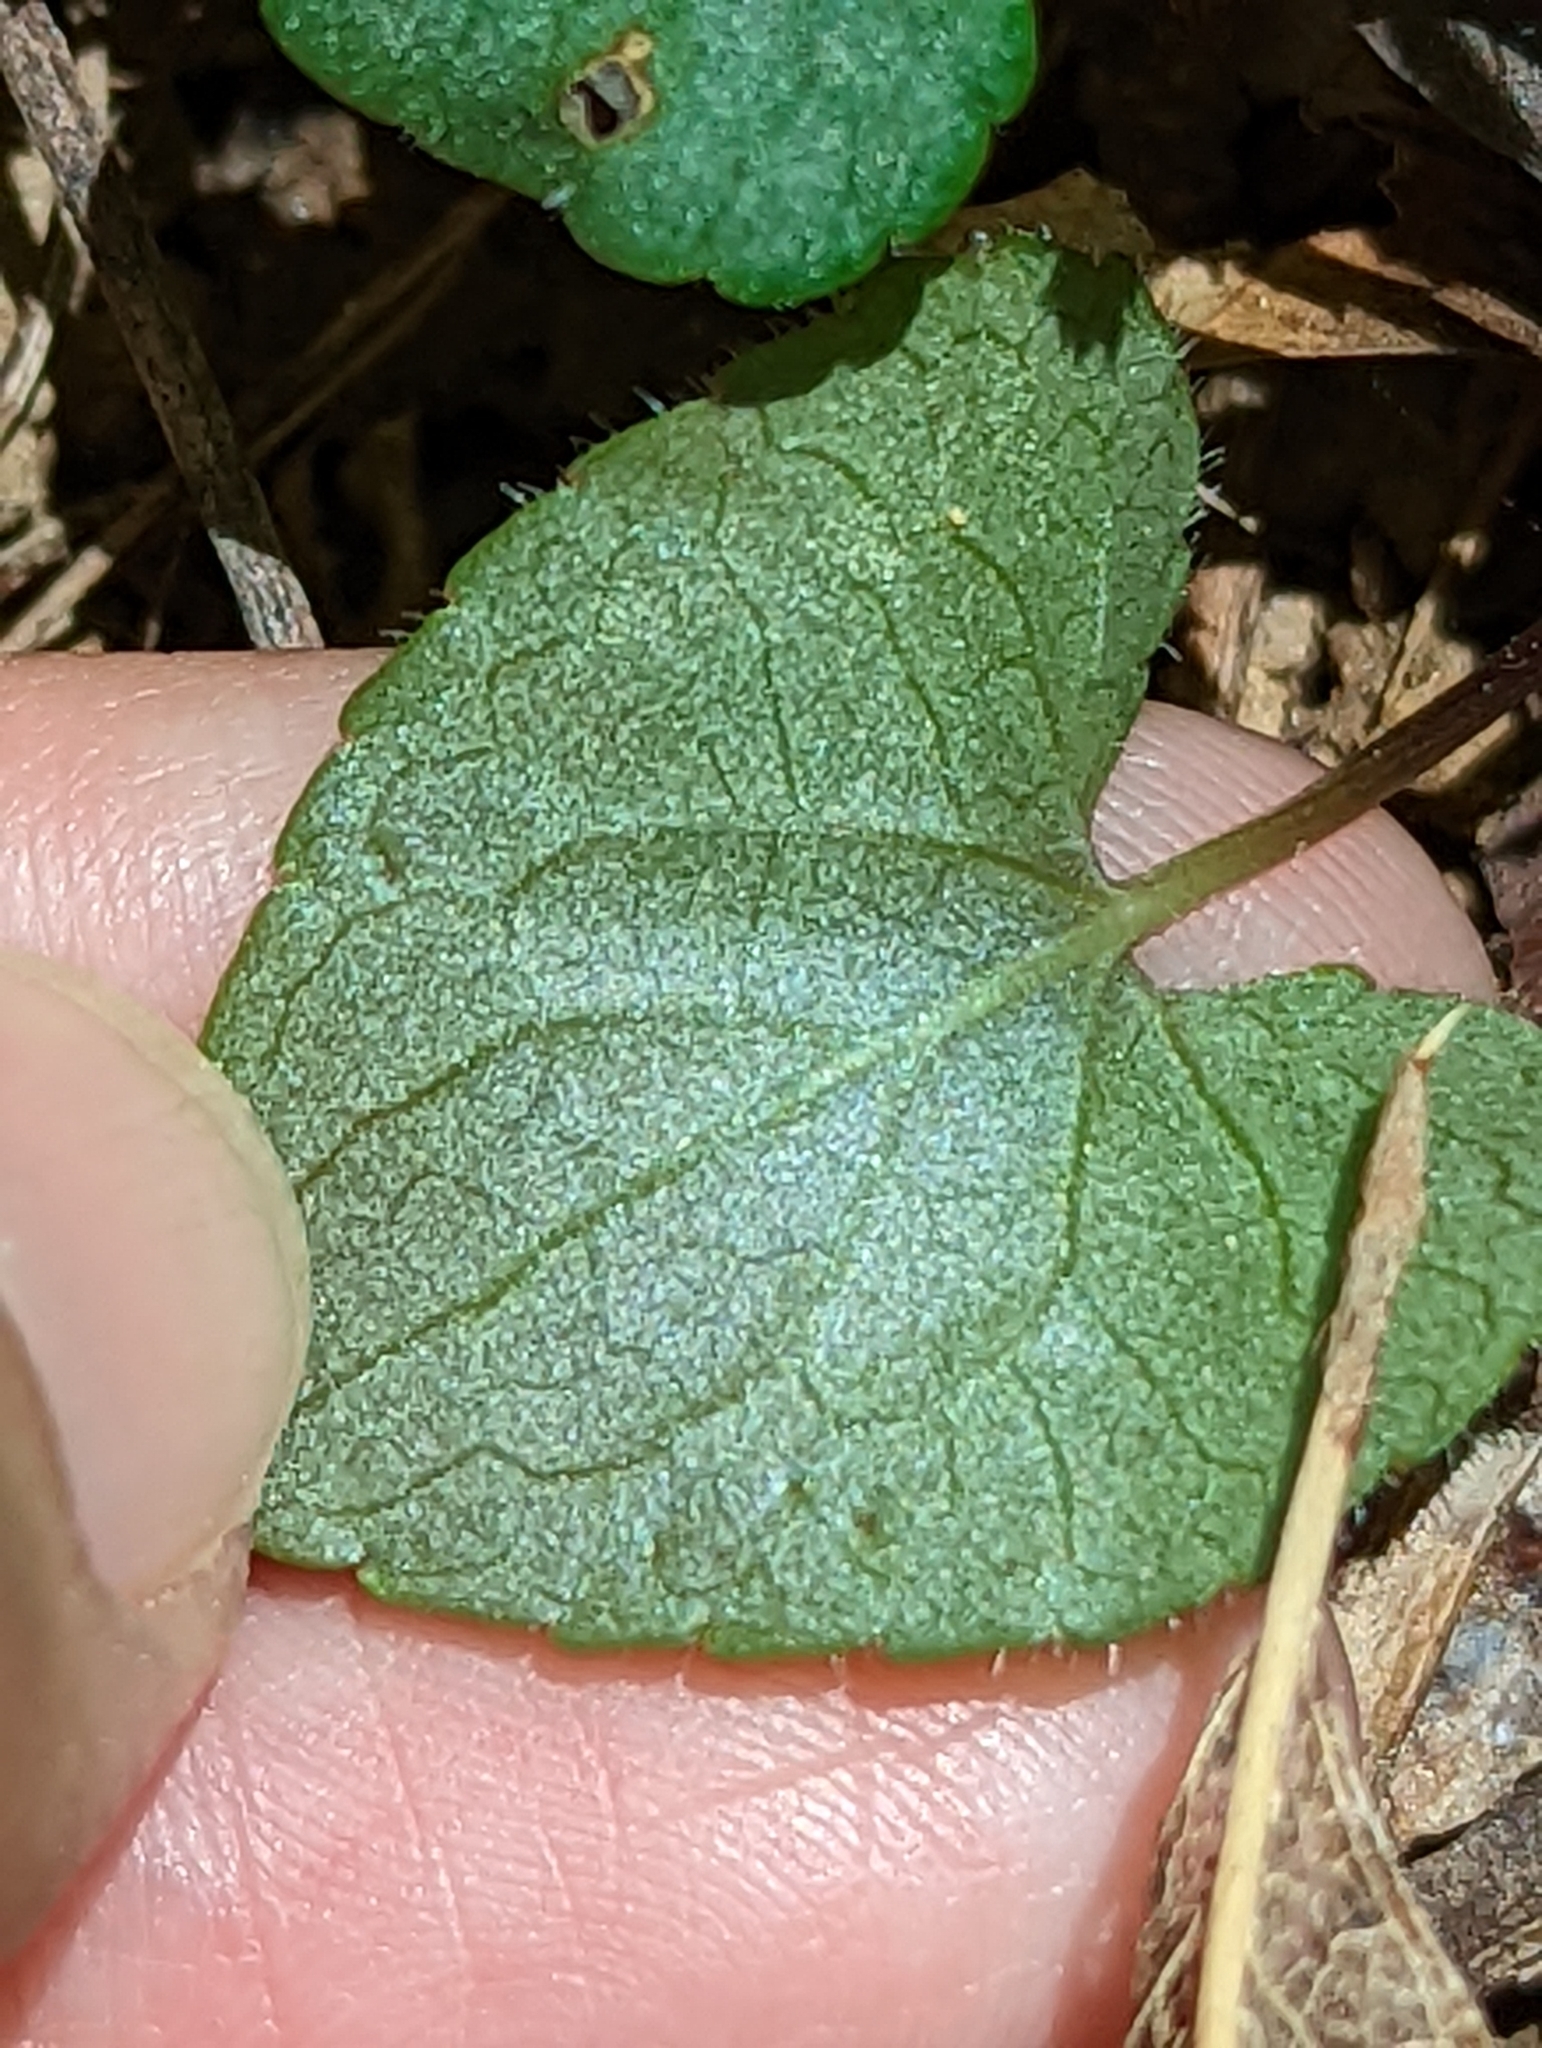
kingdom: Plantae
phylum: Tracheophyta
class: Magnoliopsida
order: Malpighiales
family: Violaceae
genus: Viola
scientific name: Viola hirsutula
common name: Southern wood violet
